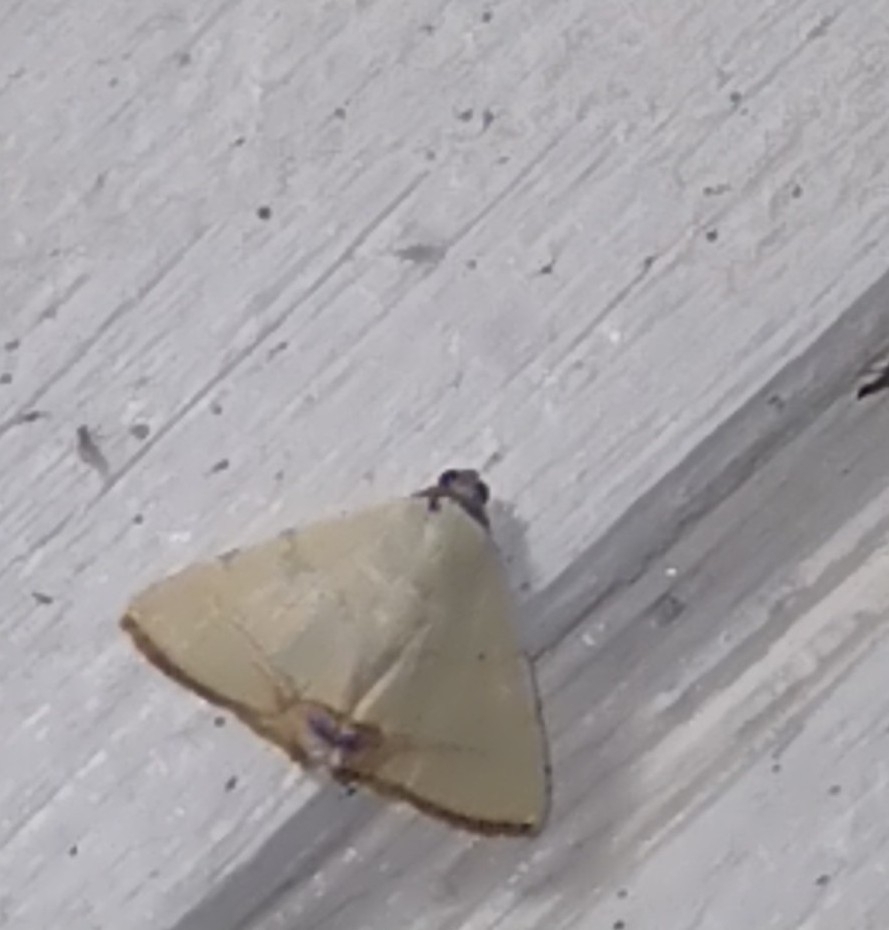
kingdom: Animalia
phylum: Arthropoda
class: Insecta
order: Lepidoptera
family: Erebidae
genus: Litoprosopus
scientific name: Litoprosopus coachella
